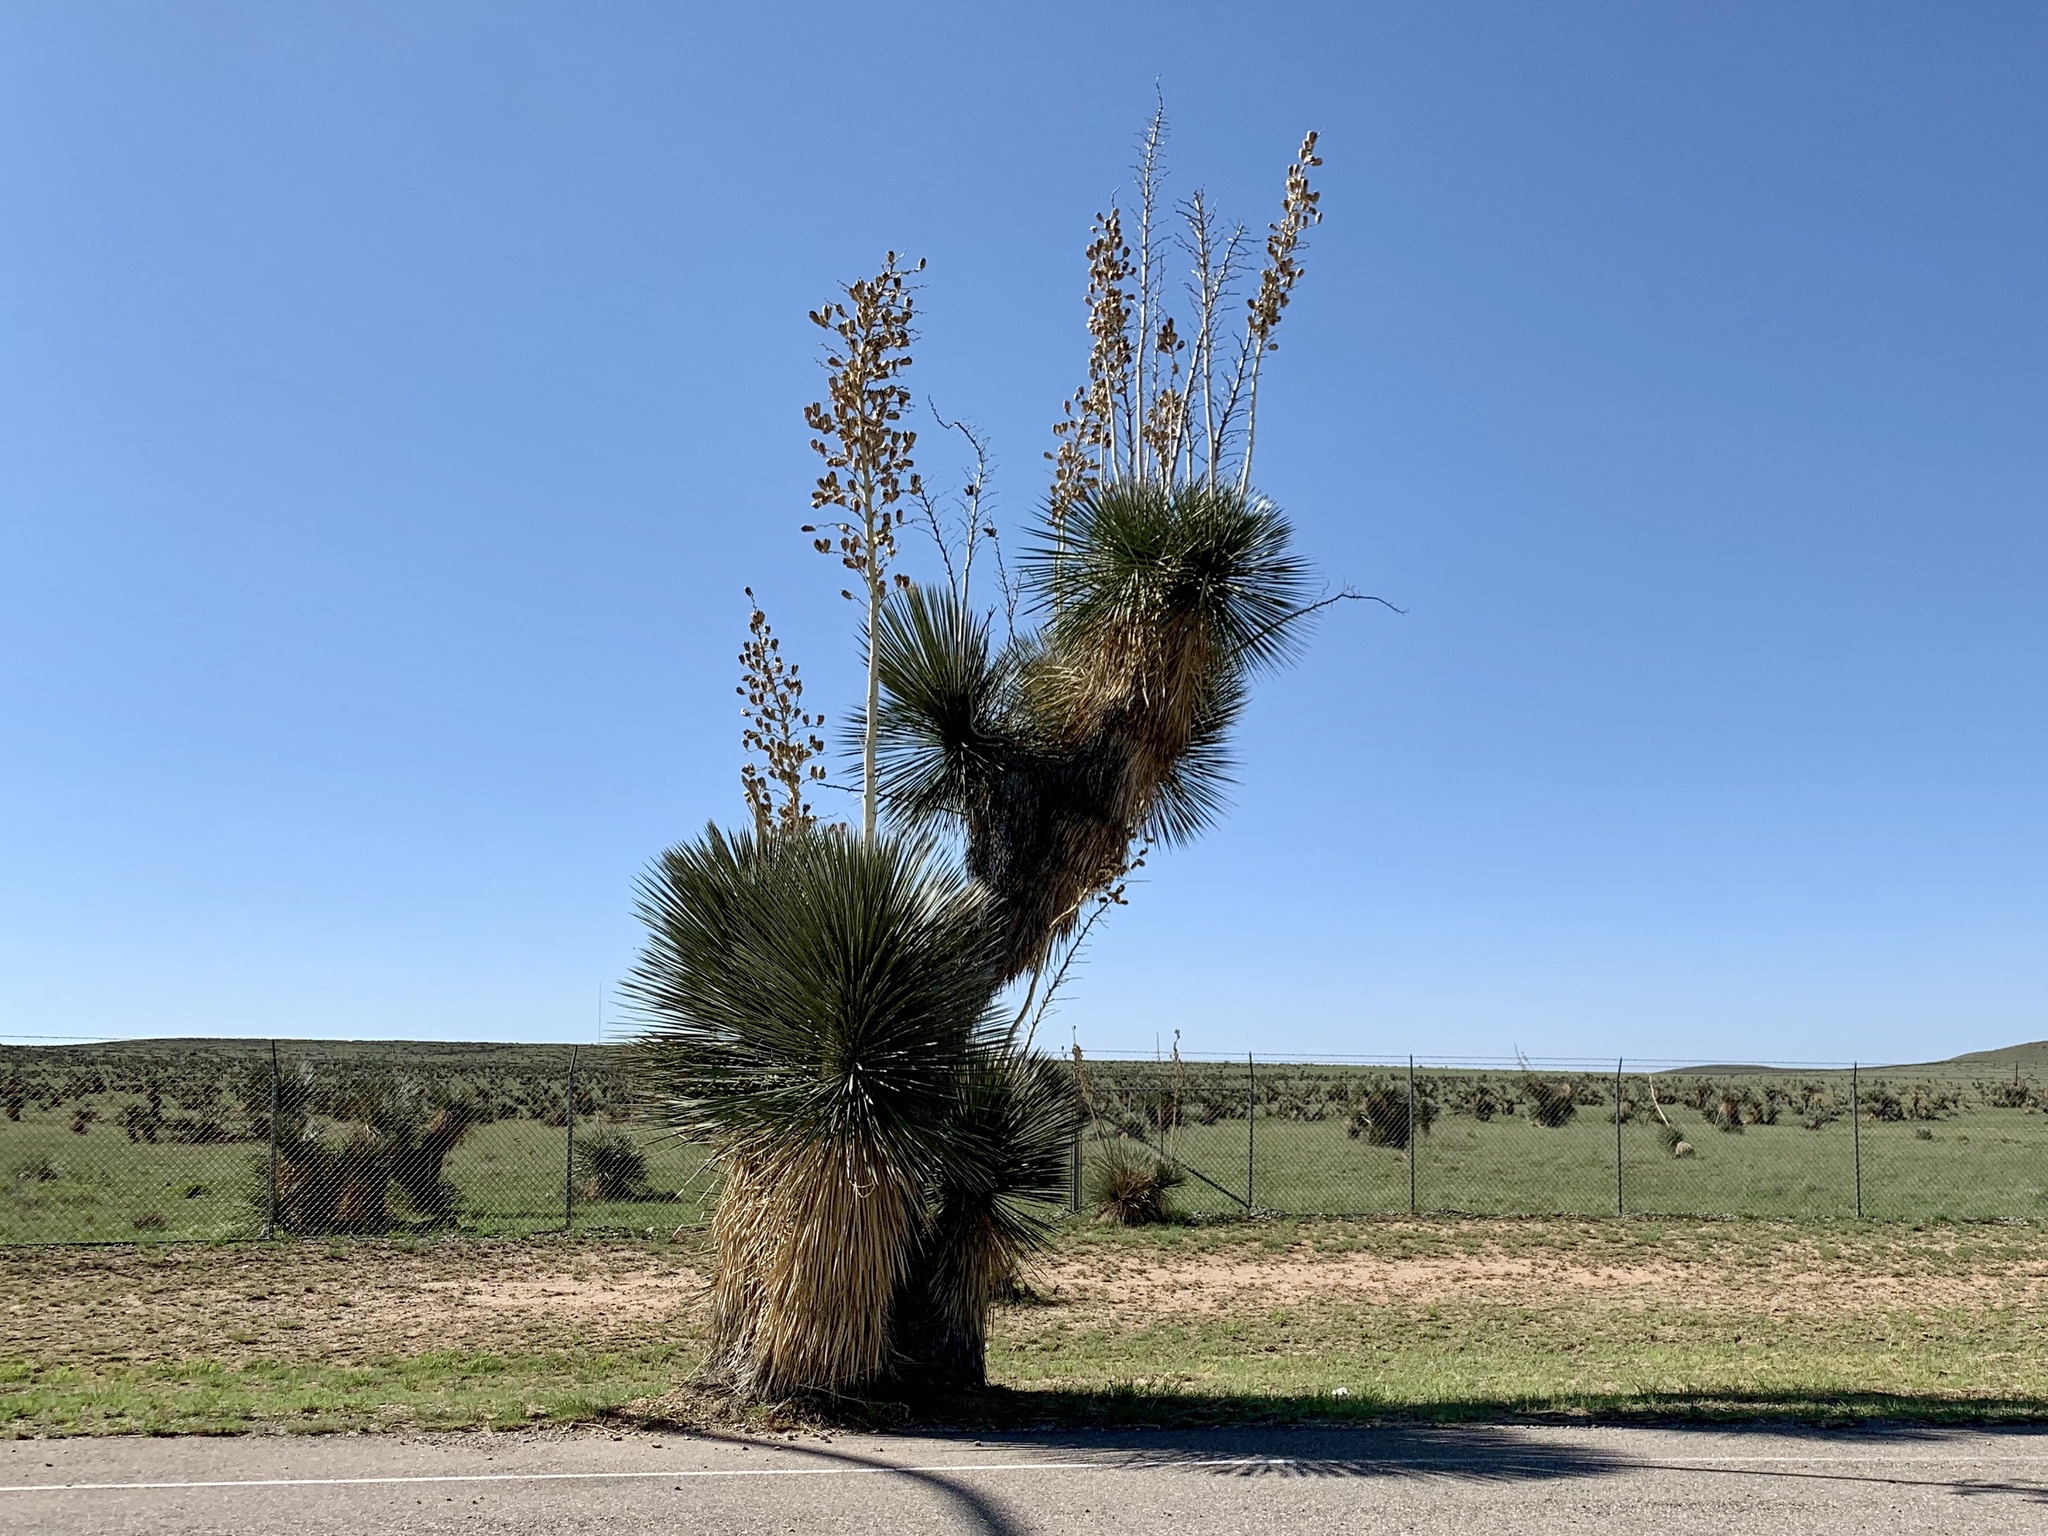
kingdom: Plantae
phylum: Tracheophyta
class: Liliopsida
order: Asparagales
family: Asparagaceae
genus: Yucca
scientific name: Yucca elata
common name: Palmella
